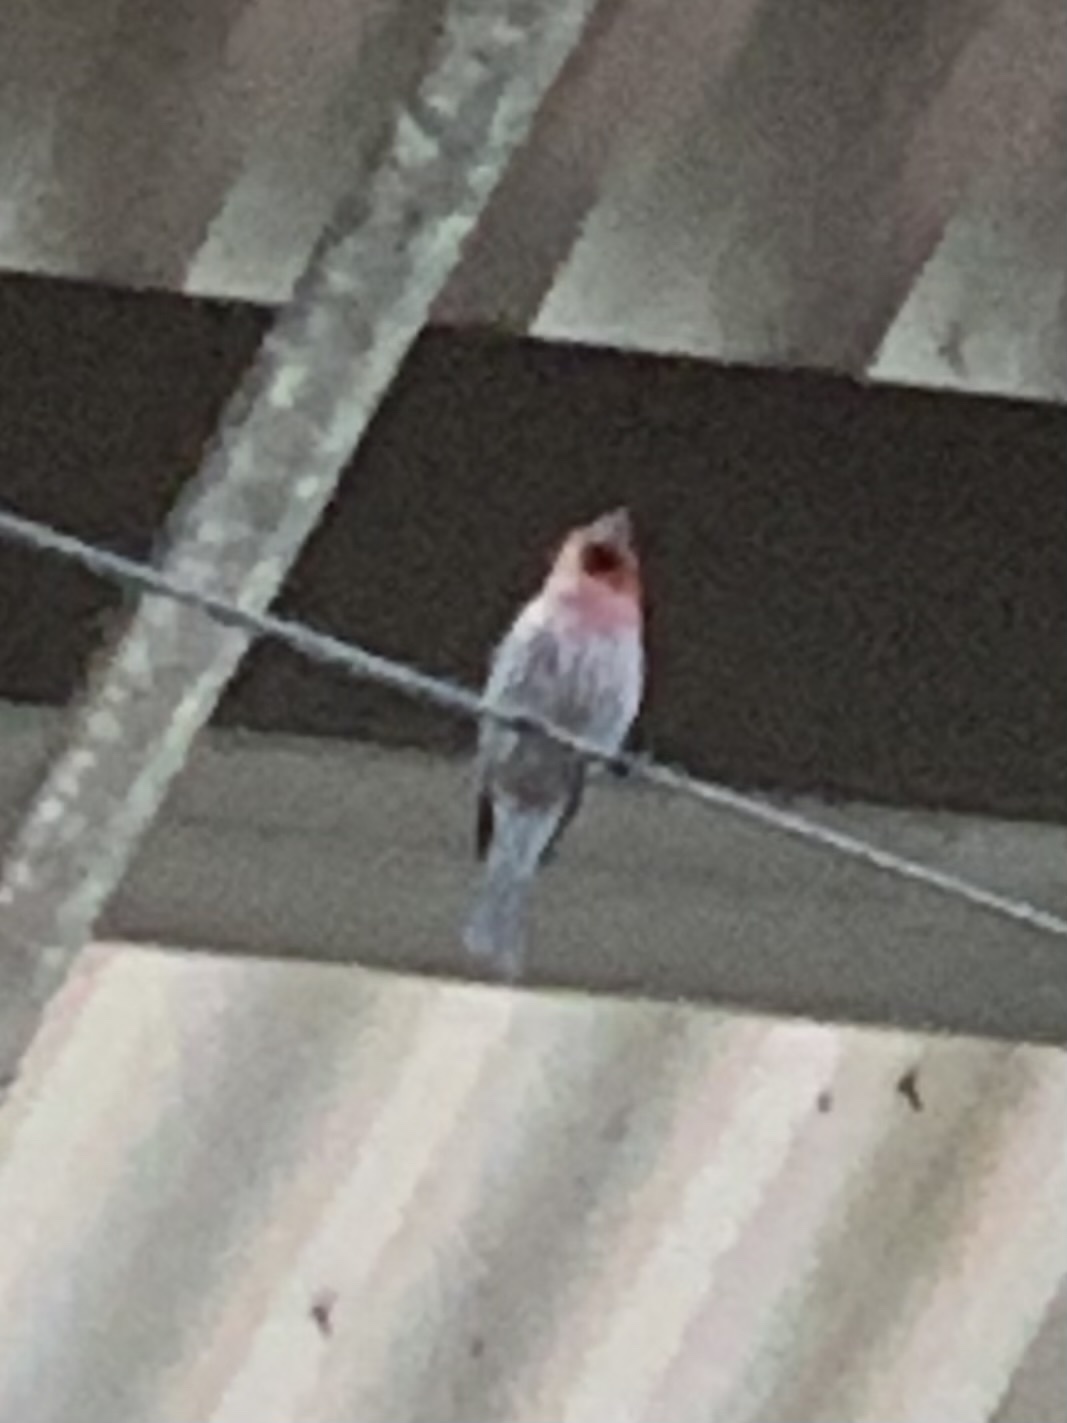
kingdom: Animalia
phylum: Chordata
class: Aves
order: Passeriformes
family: Fringillidae
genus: Haemorhous
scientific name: Haemorhous mexicanus
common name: House finch
